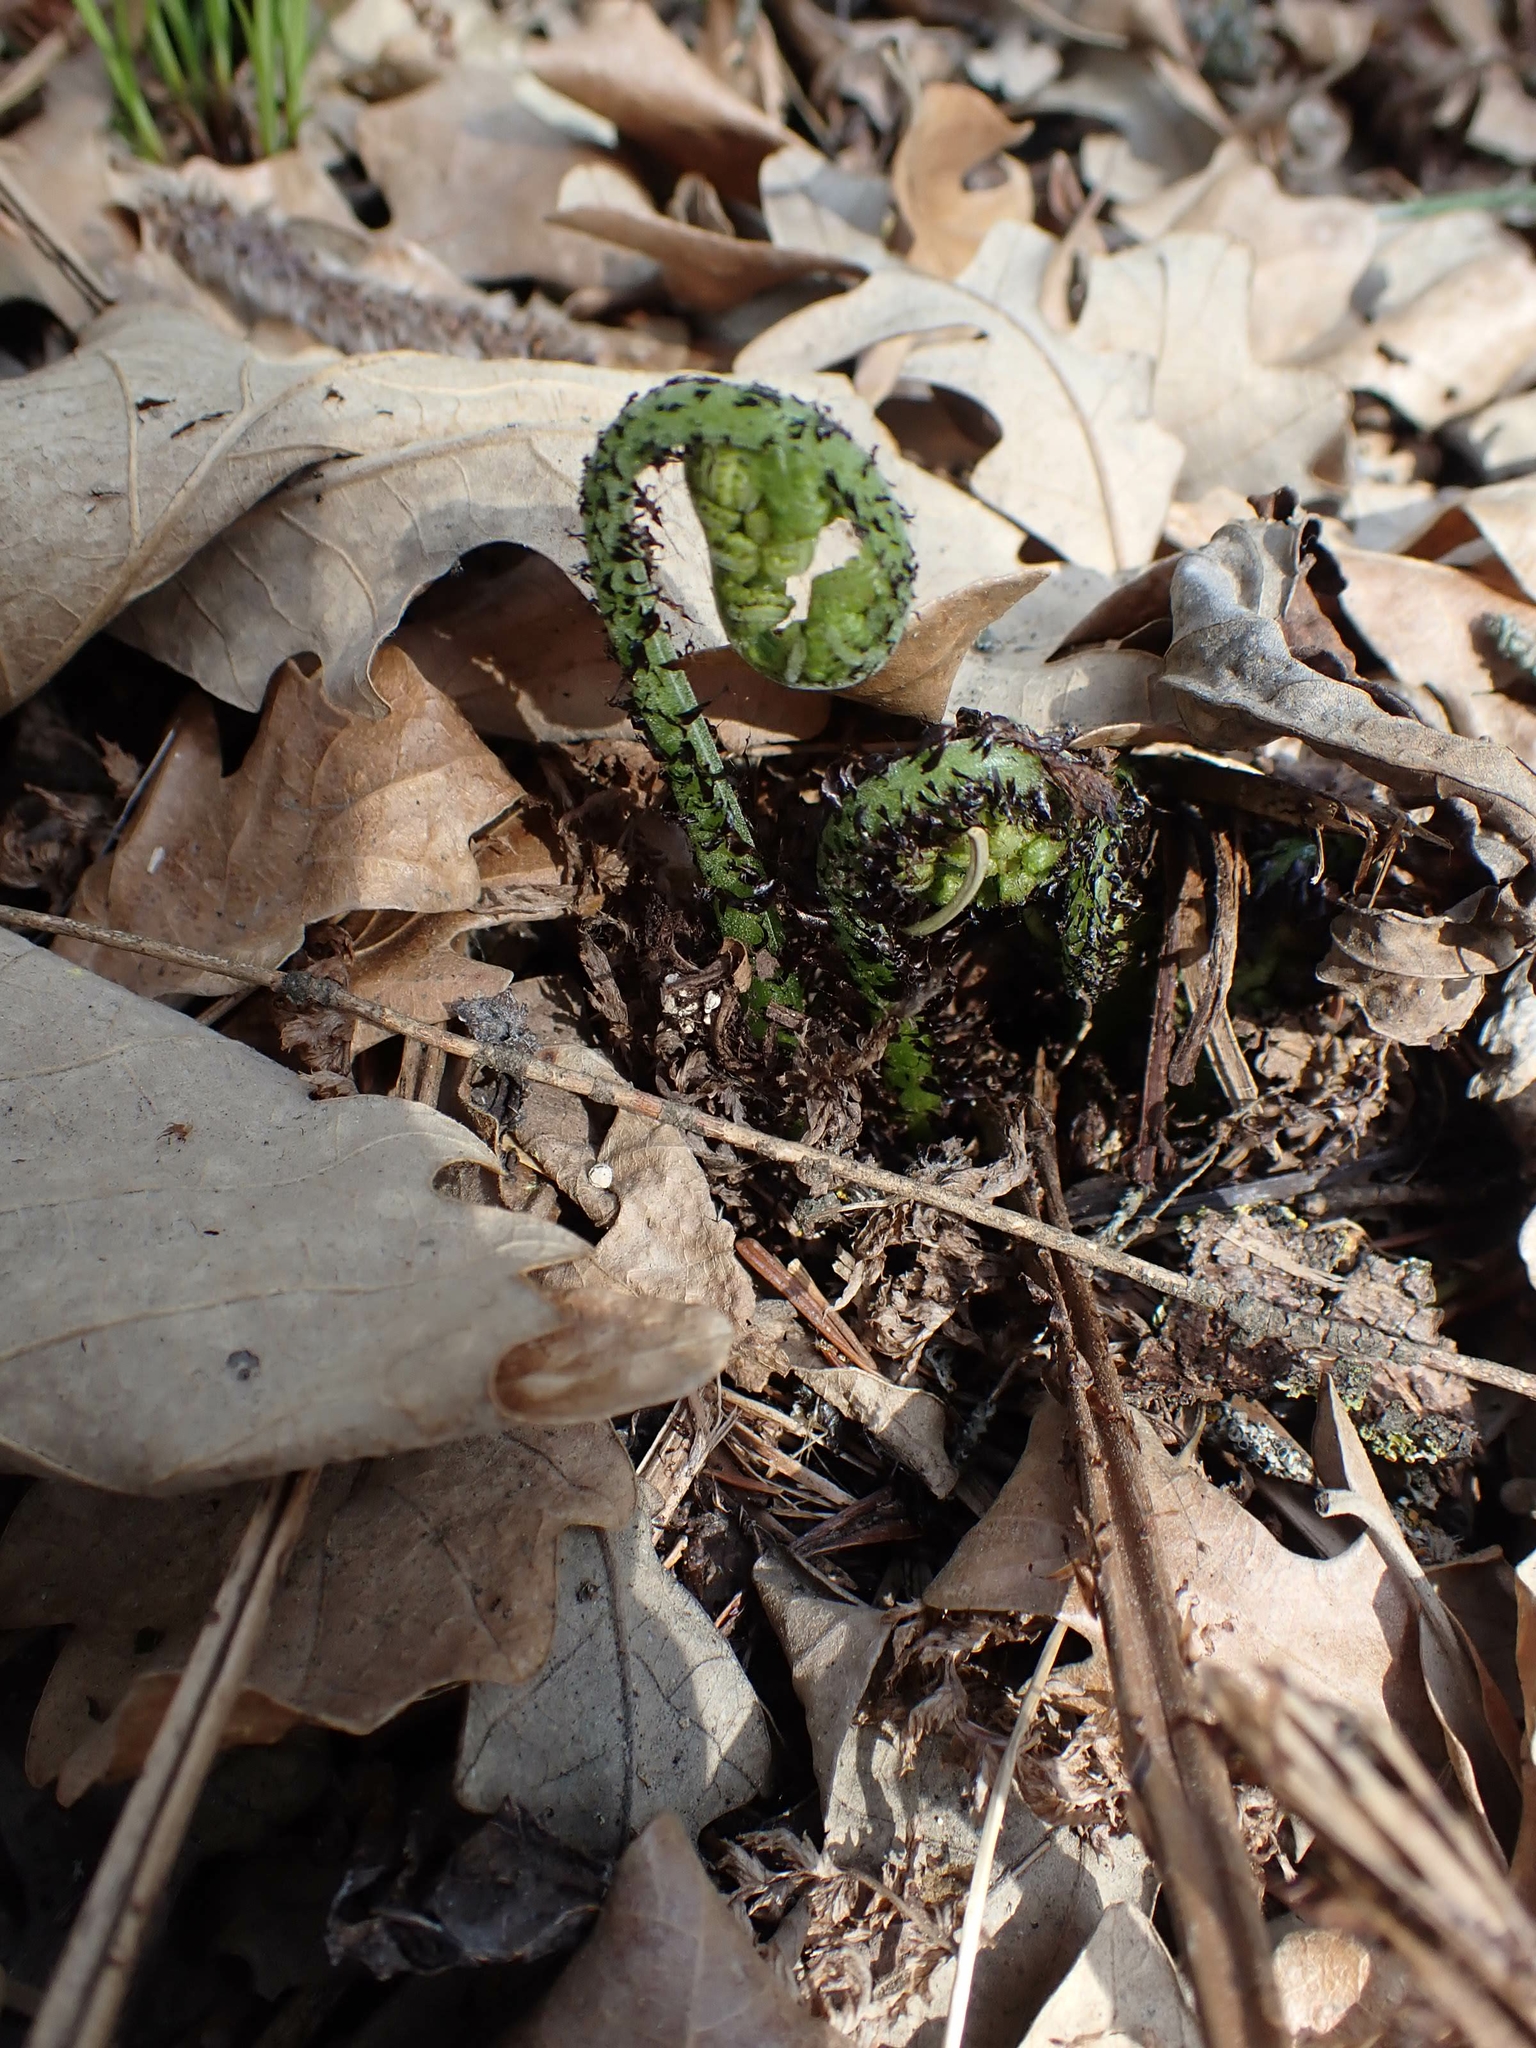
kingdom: Plantae
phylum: Tracheophyta
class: Polypodiopsida
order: Polypodiales
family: Athyriaceae
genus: Athyrium
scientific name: Athyrium angustum
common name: Northern lady fern
